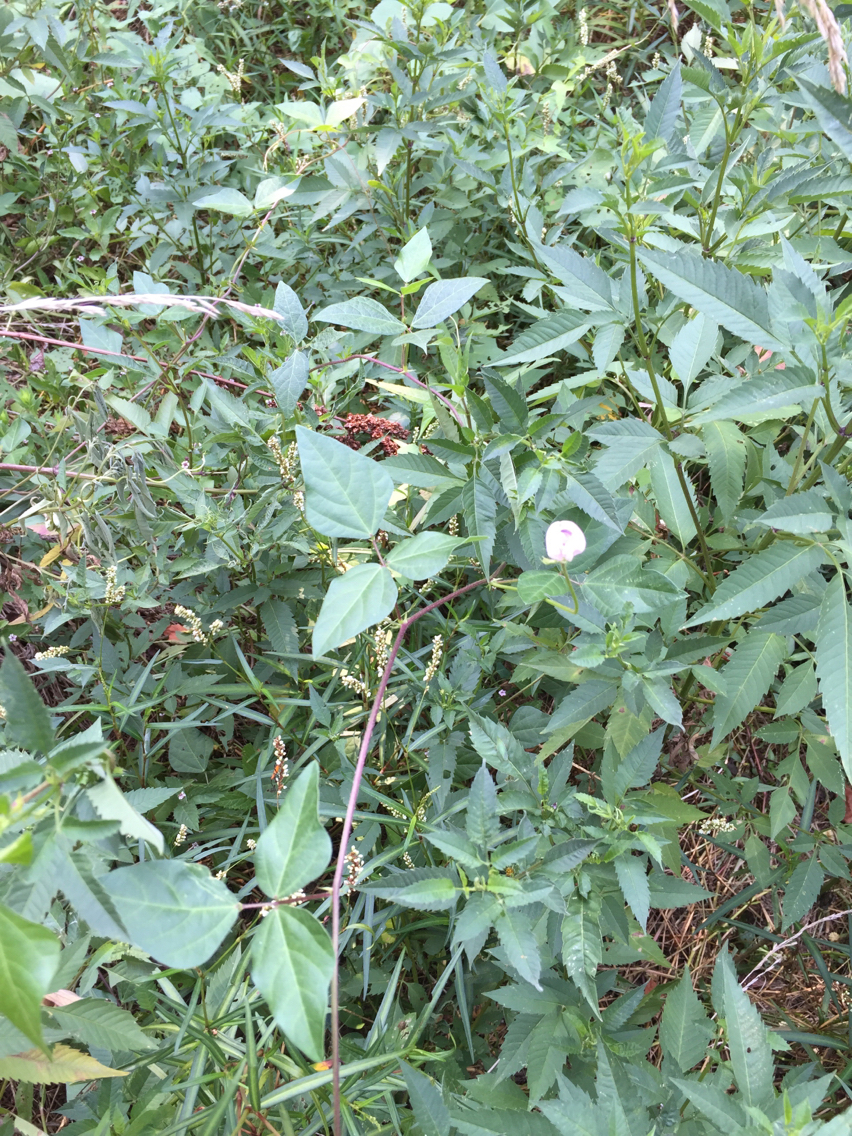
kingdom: Plantae
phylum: Tracheophyta
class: Magnoliopsida
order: Fabales
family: Fabaceae
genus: Strophostyles
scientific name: Strophostyles helvola
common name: Trailing wild bean
